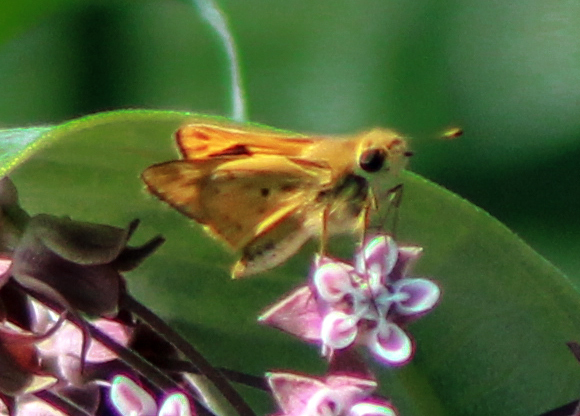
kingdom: Animalia
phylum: Arthropoda
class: Insecta
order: Lepidoptera
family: Hesperiidae
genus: Hylephila
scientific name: Hylephila phyleus
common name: Fiery skipper
